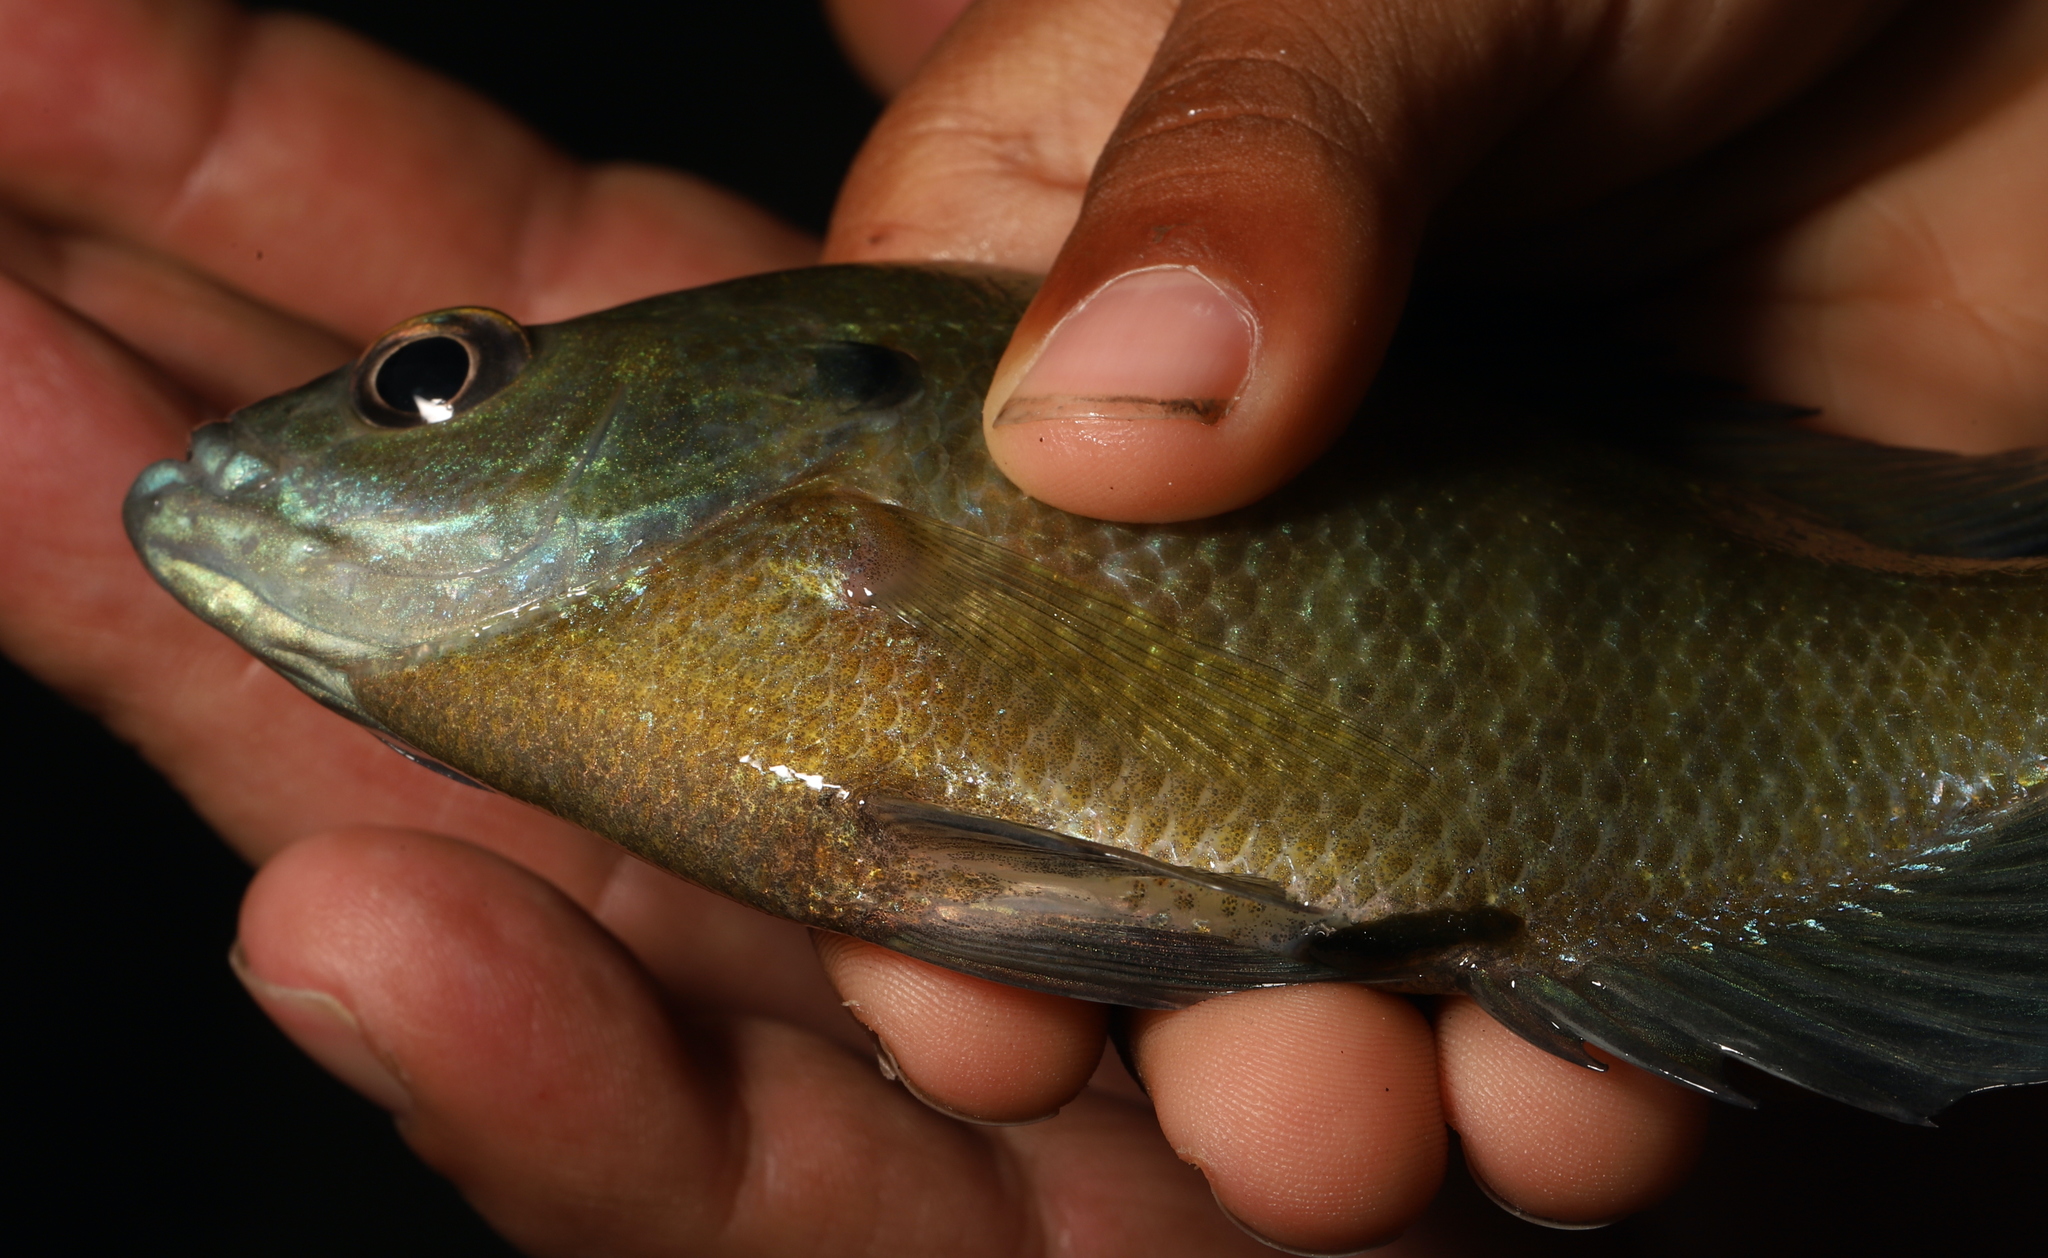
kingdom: Animalia
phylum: Chordata
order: Perciformes
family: Centrarchidae
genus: Lepomis
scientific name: Lepomis macrochirus
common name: Bluegill
